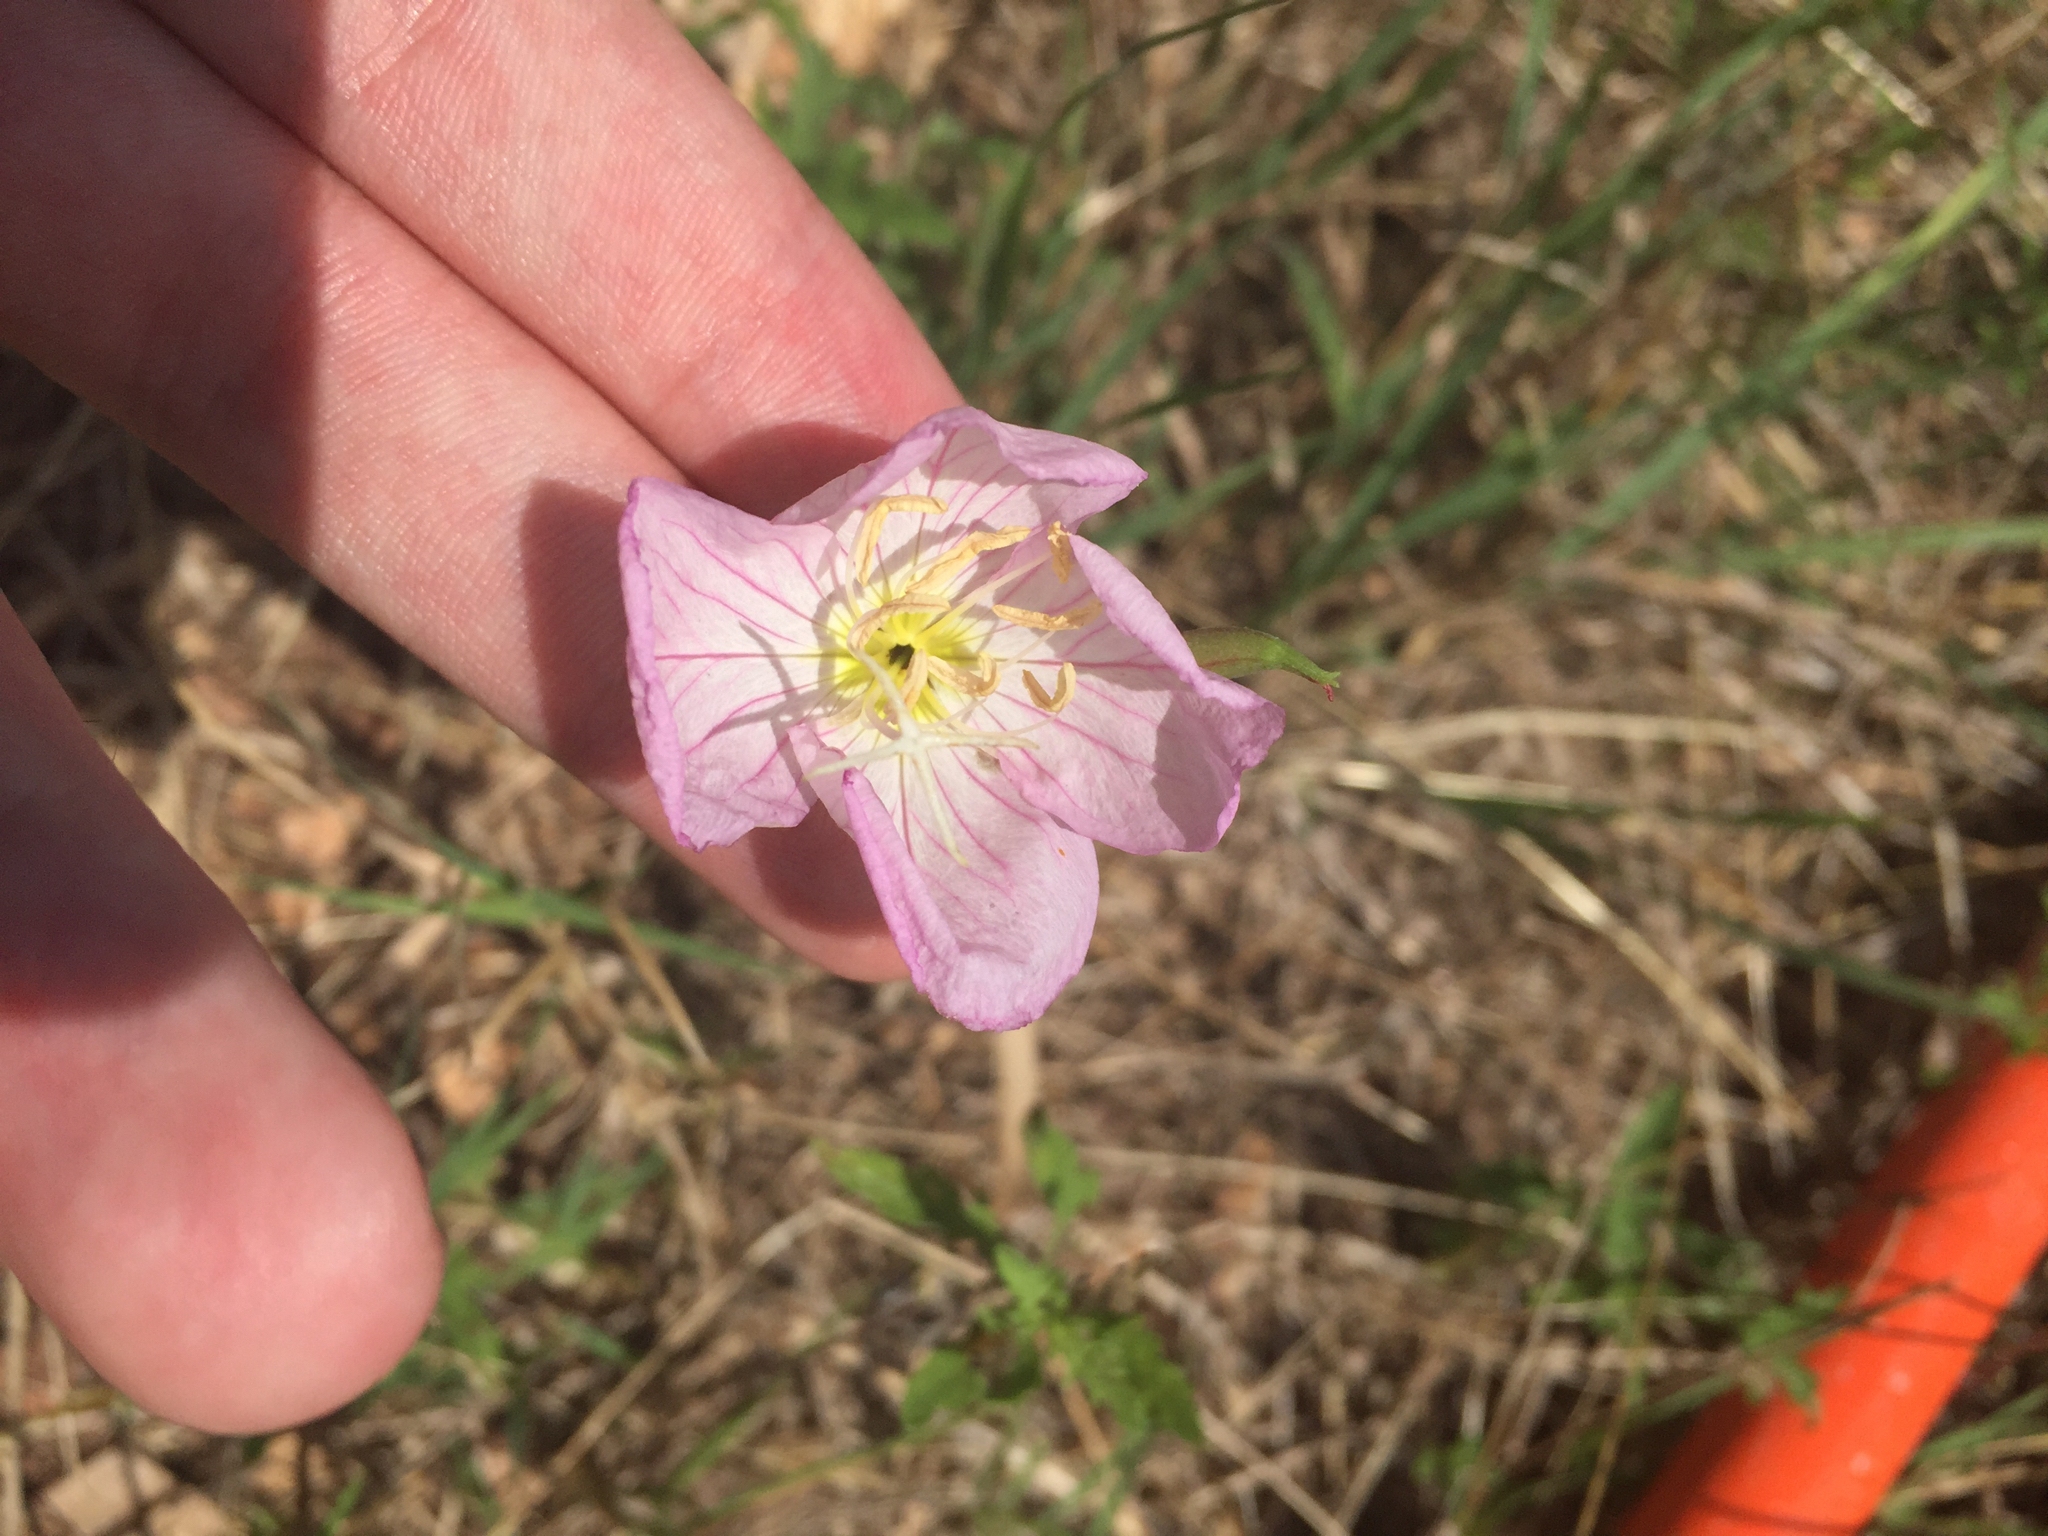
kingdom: Plantae
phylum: Tracheophyta
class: Magnoliopsida
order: Myrtales
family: Onagraceae
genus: Oenothera
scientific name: Oenothera speciosa
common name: White evening-primrose
